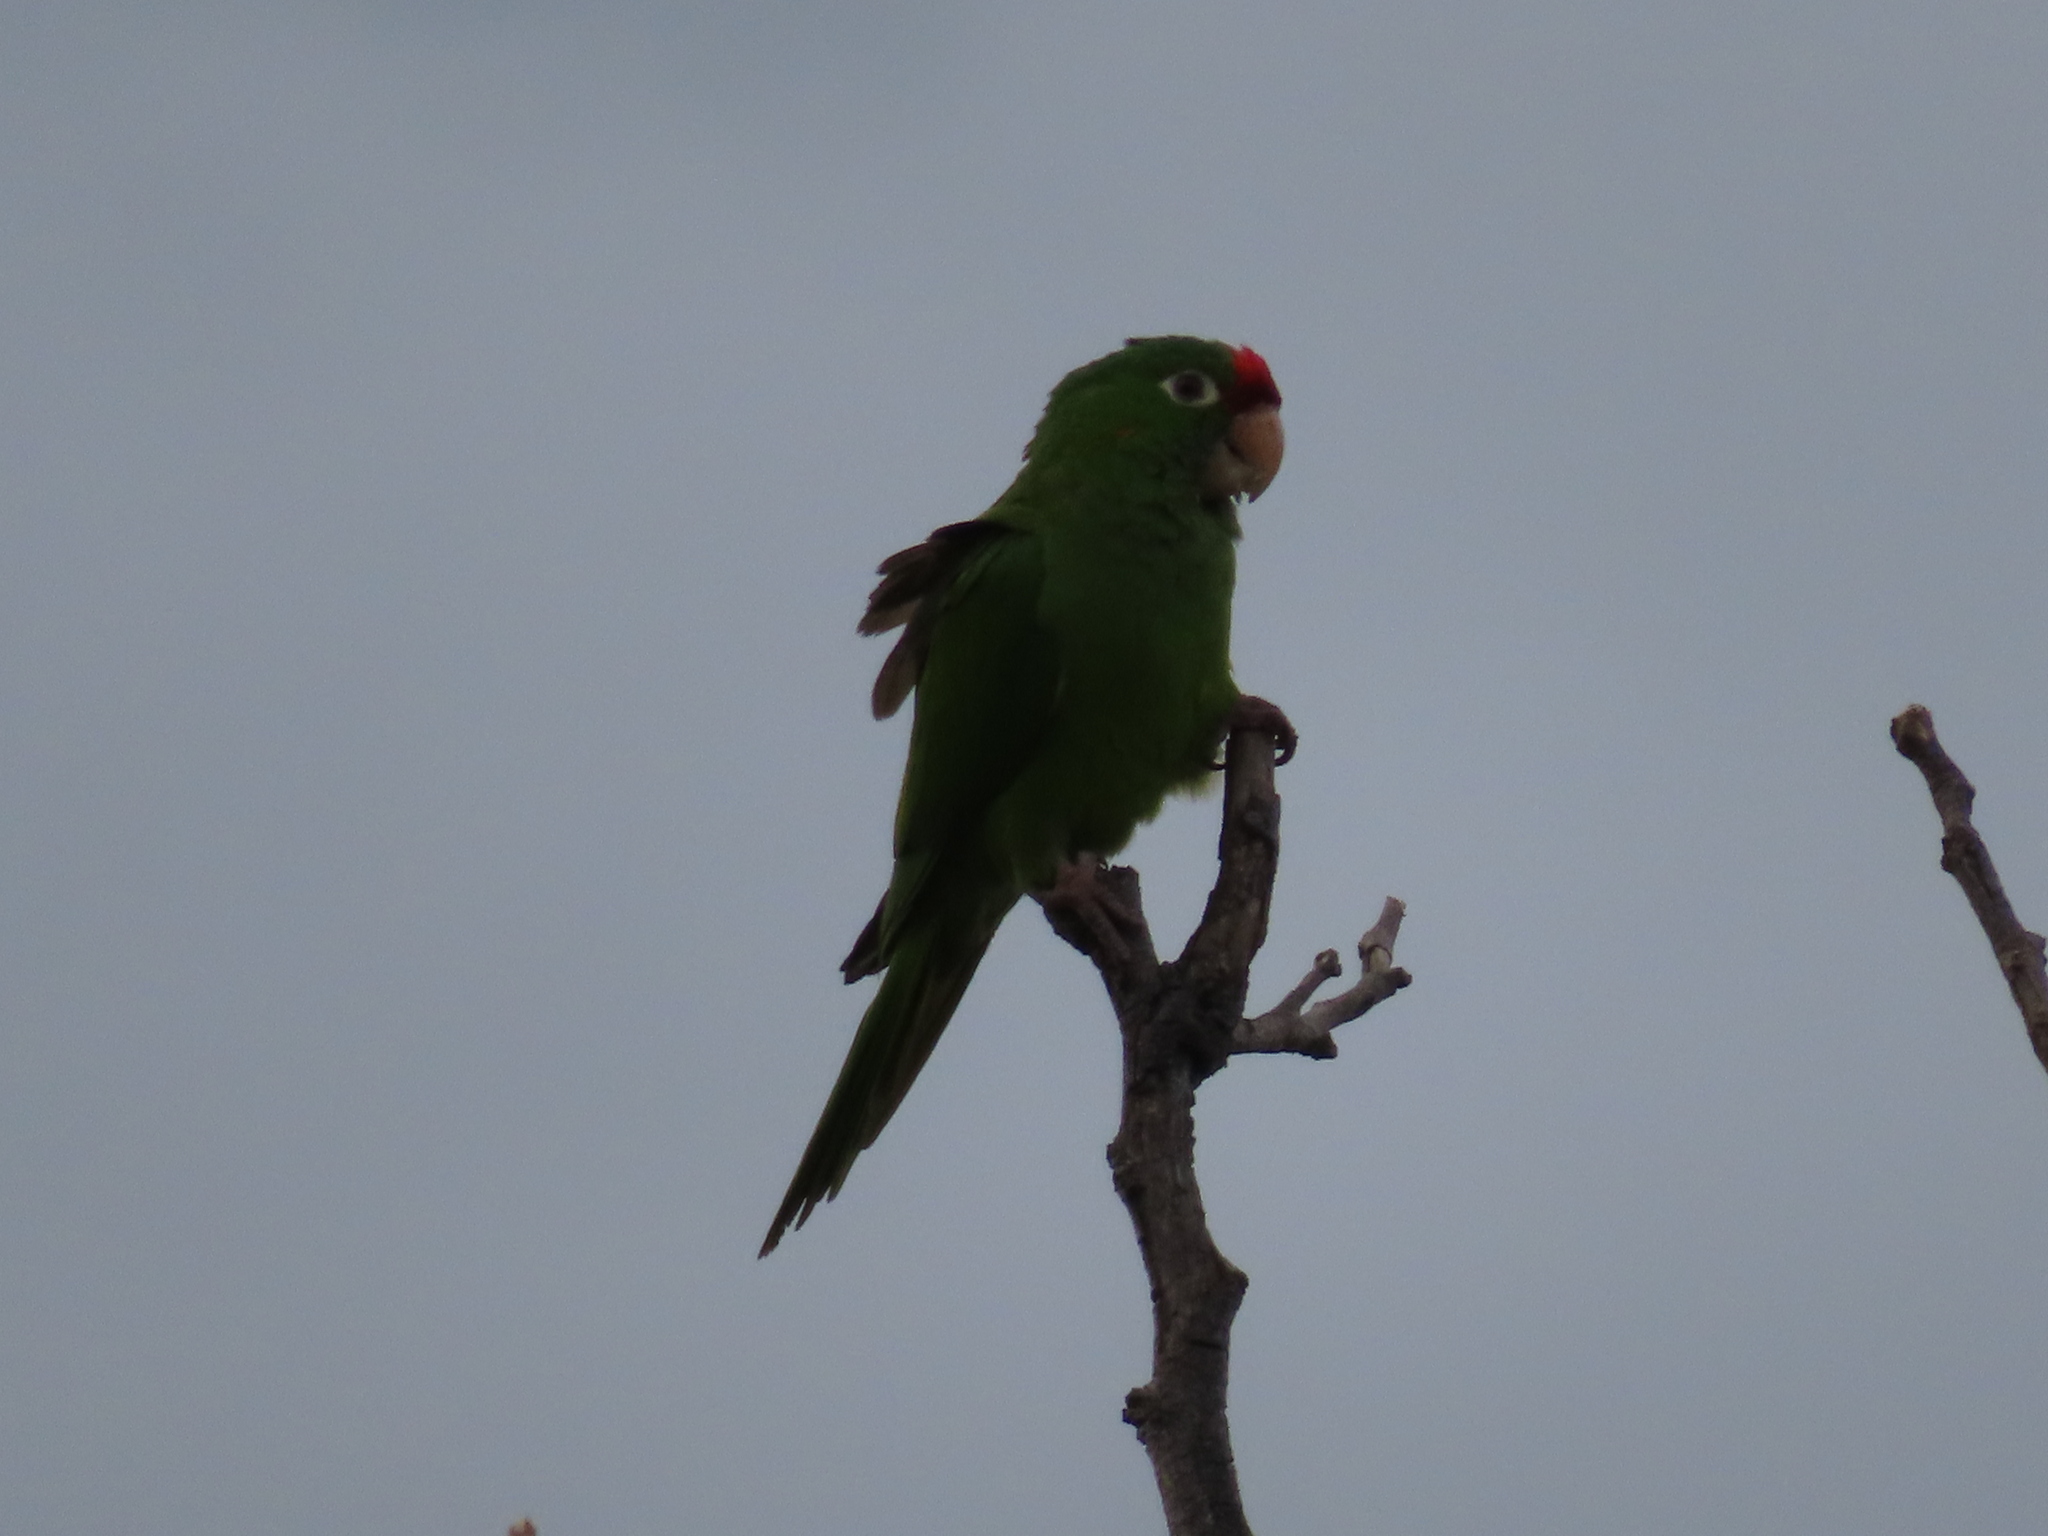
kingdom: Animalia
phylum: Chordata
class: Aves
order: Psittaciformes
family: Psittacidae
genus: Aratinga
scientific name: Aratinga finschi
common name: Crimson-fronted parakeet
